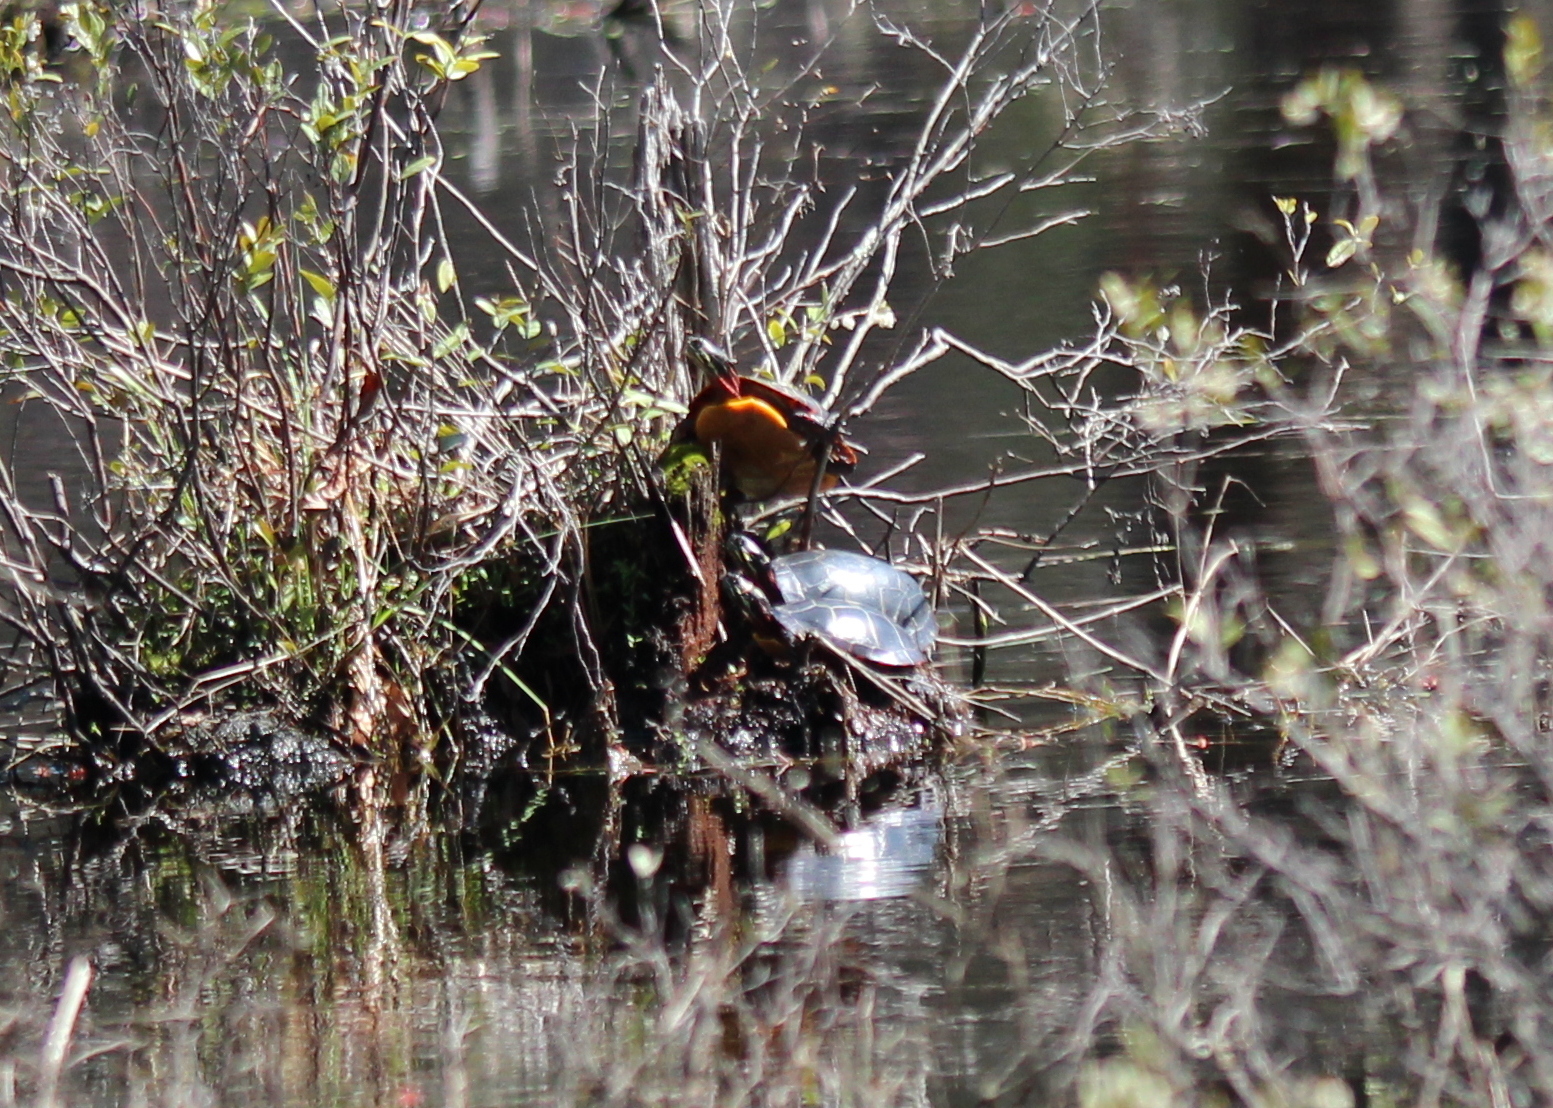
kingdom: Animalia
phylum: Chordata
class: Testudines
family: Emydidae
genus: Chrysemys
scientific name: Chrysemys picta
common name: Painted turtle
